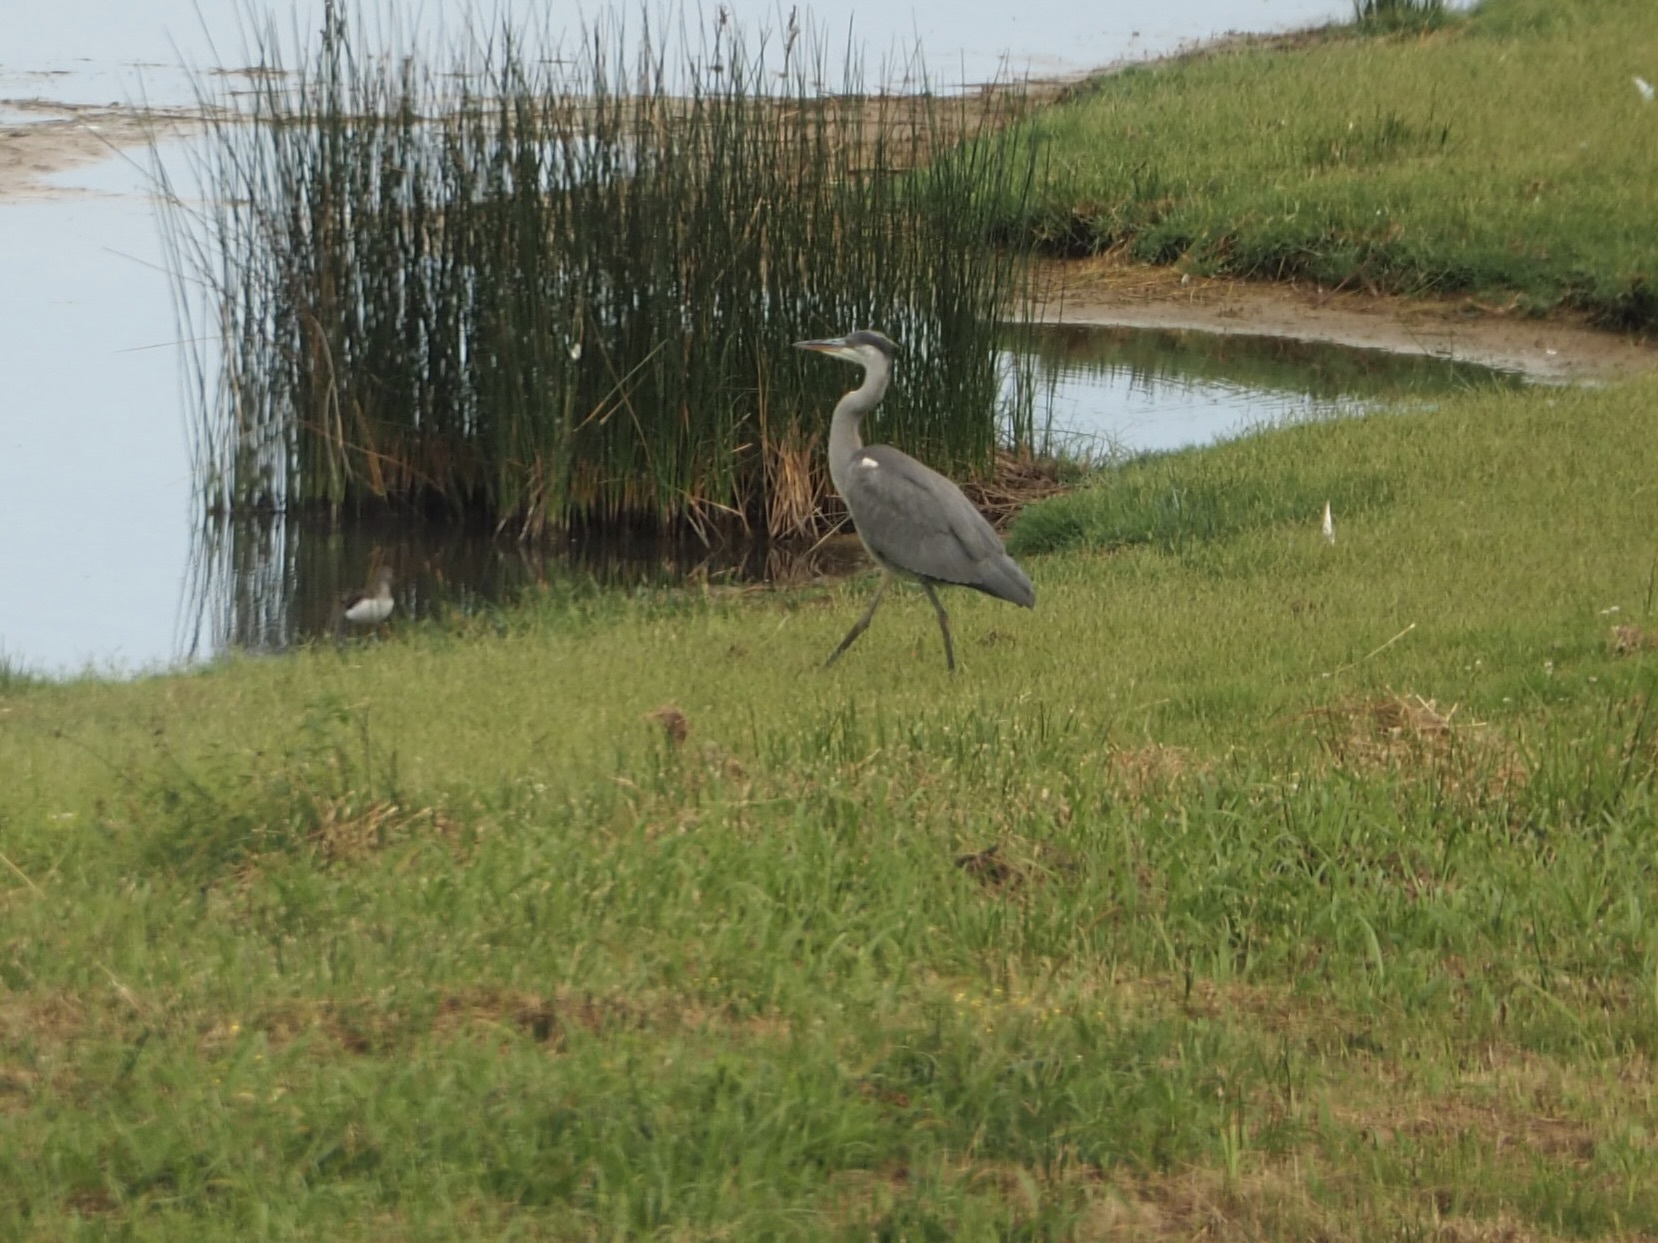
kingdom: Animalia
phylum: Chordata
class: Aves
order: Pelecaniformes
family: Ardeidae
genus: Ardea
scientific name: Ardea cinerea
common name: Grey heron
